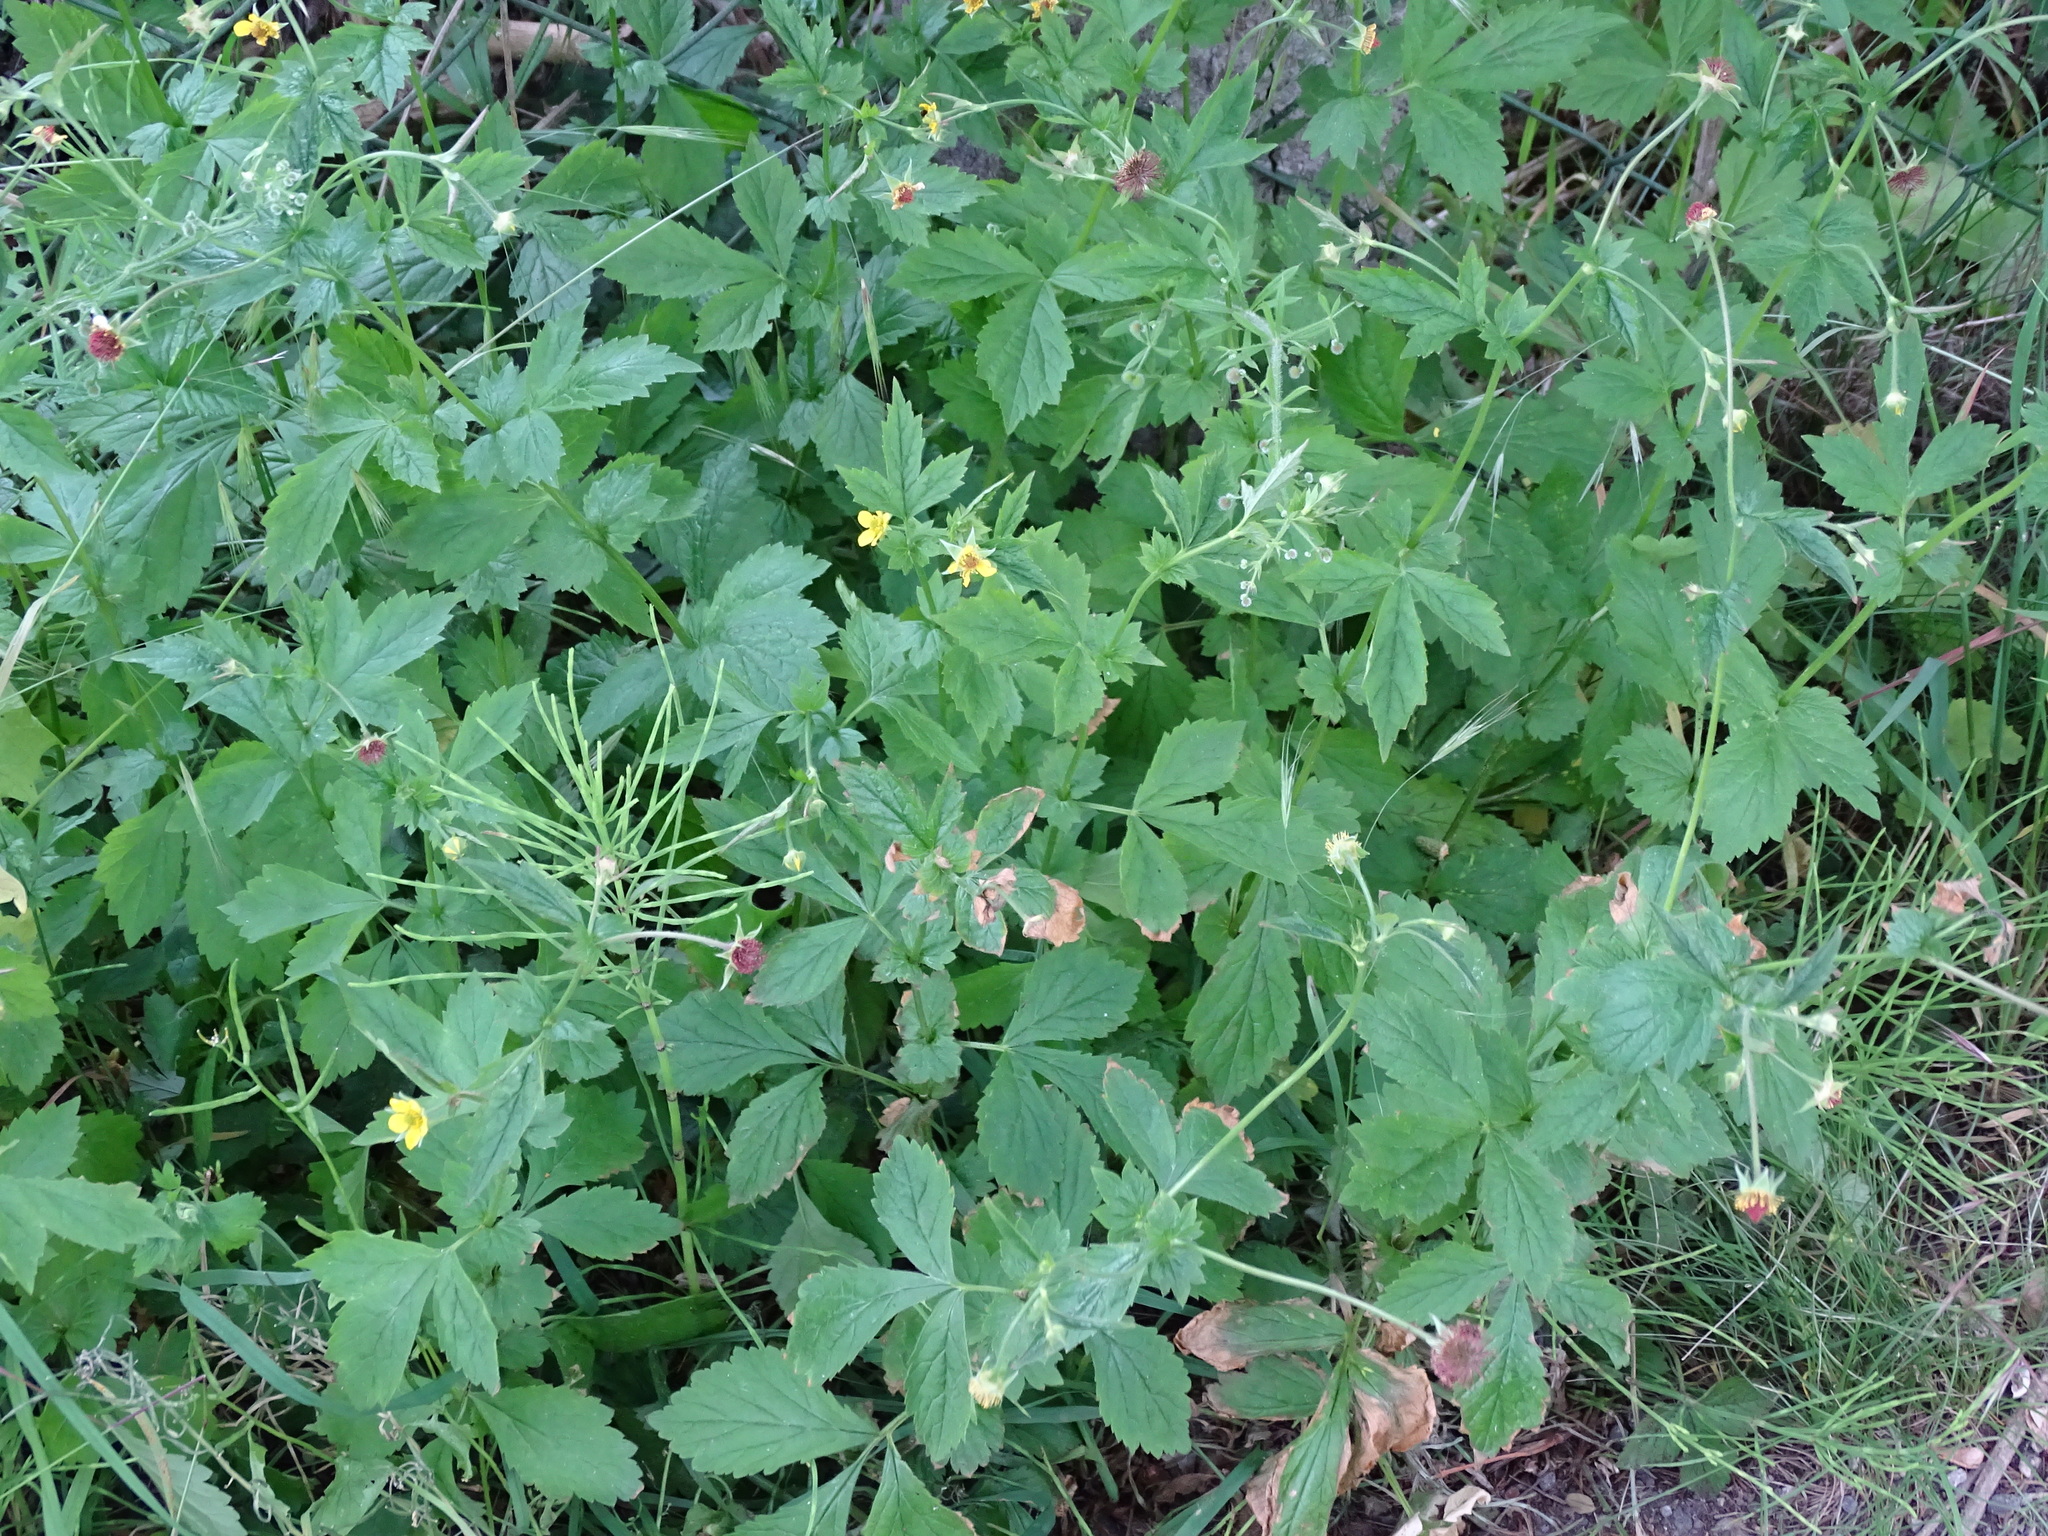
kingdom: Plantae
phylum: Tracheophyta
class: Magnoliopsida
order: Rosales
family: Rosaceae
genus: Geum
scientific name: Geum urbanum
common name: Wood avens
